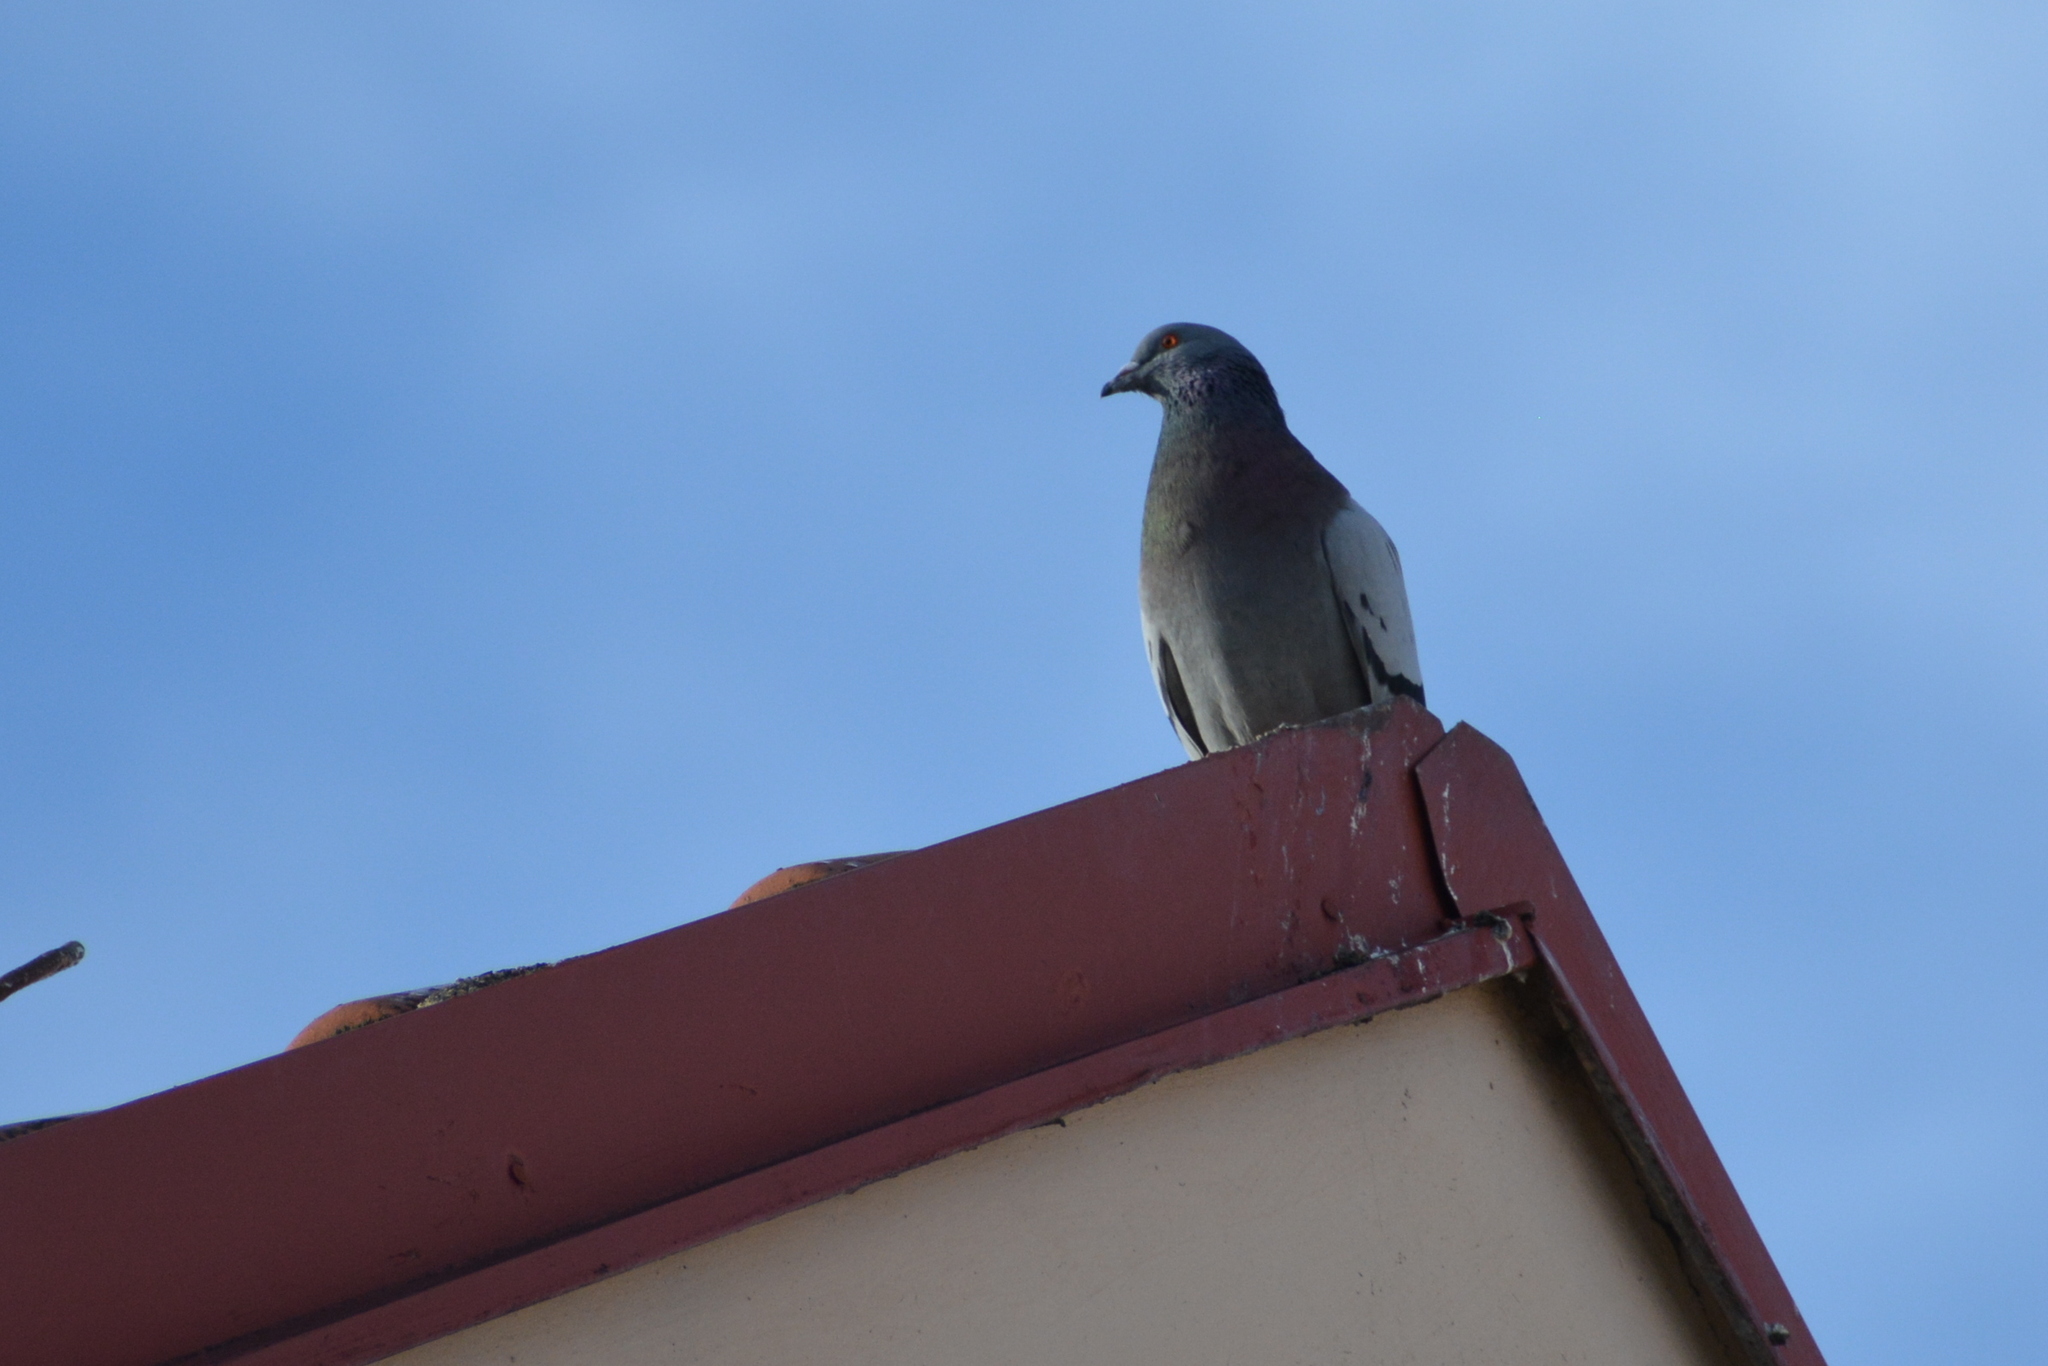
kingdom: Animalia
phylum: Chordata
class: Aves
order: Columbiformes
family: Columbidae
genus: Columba
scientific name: Columba livia
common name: Rock pigeon
